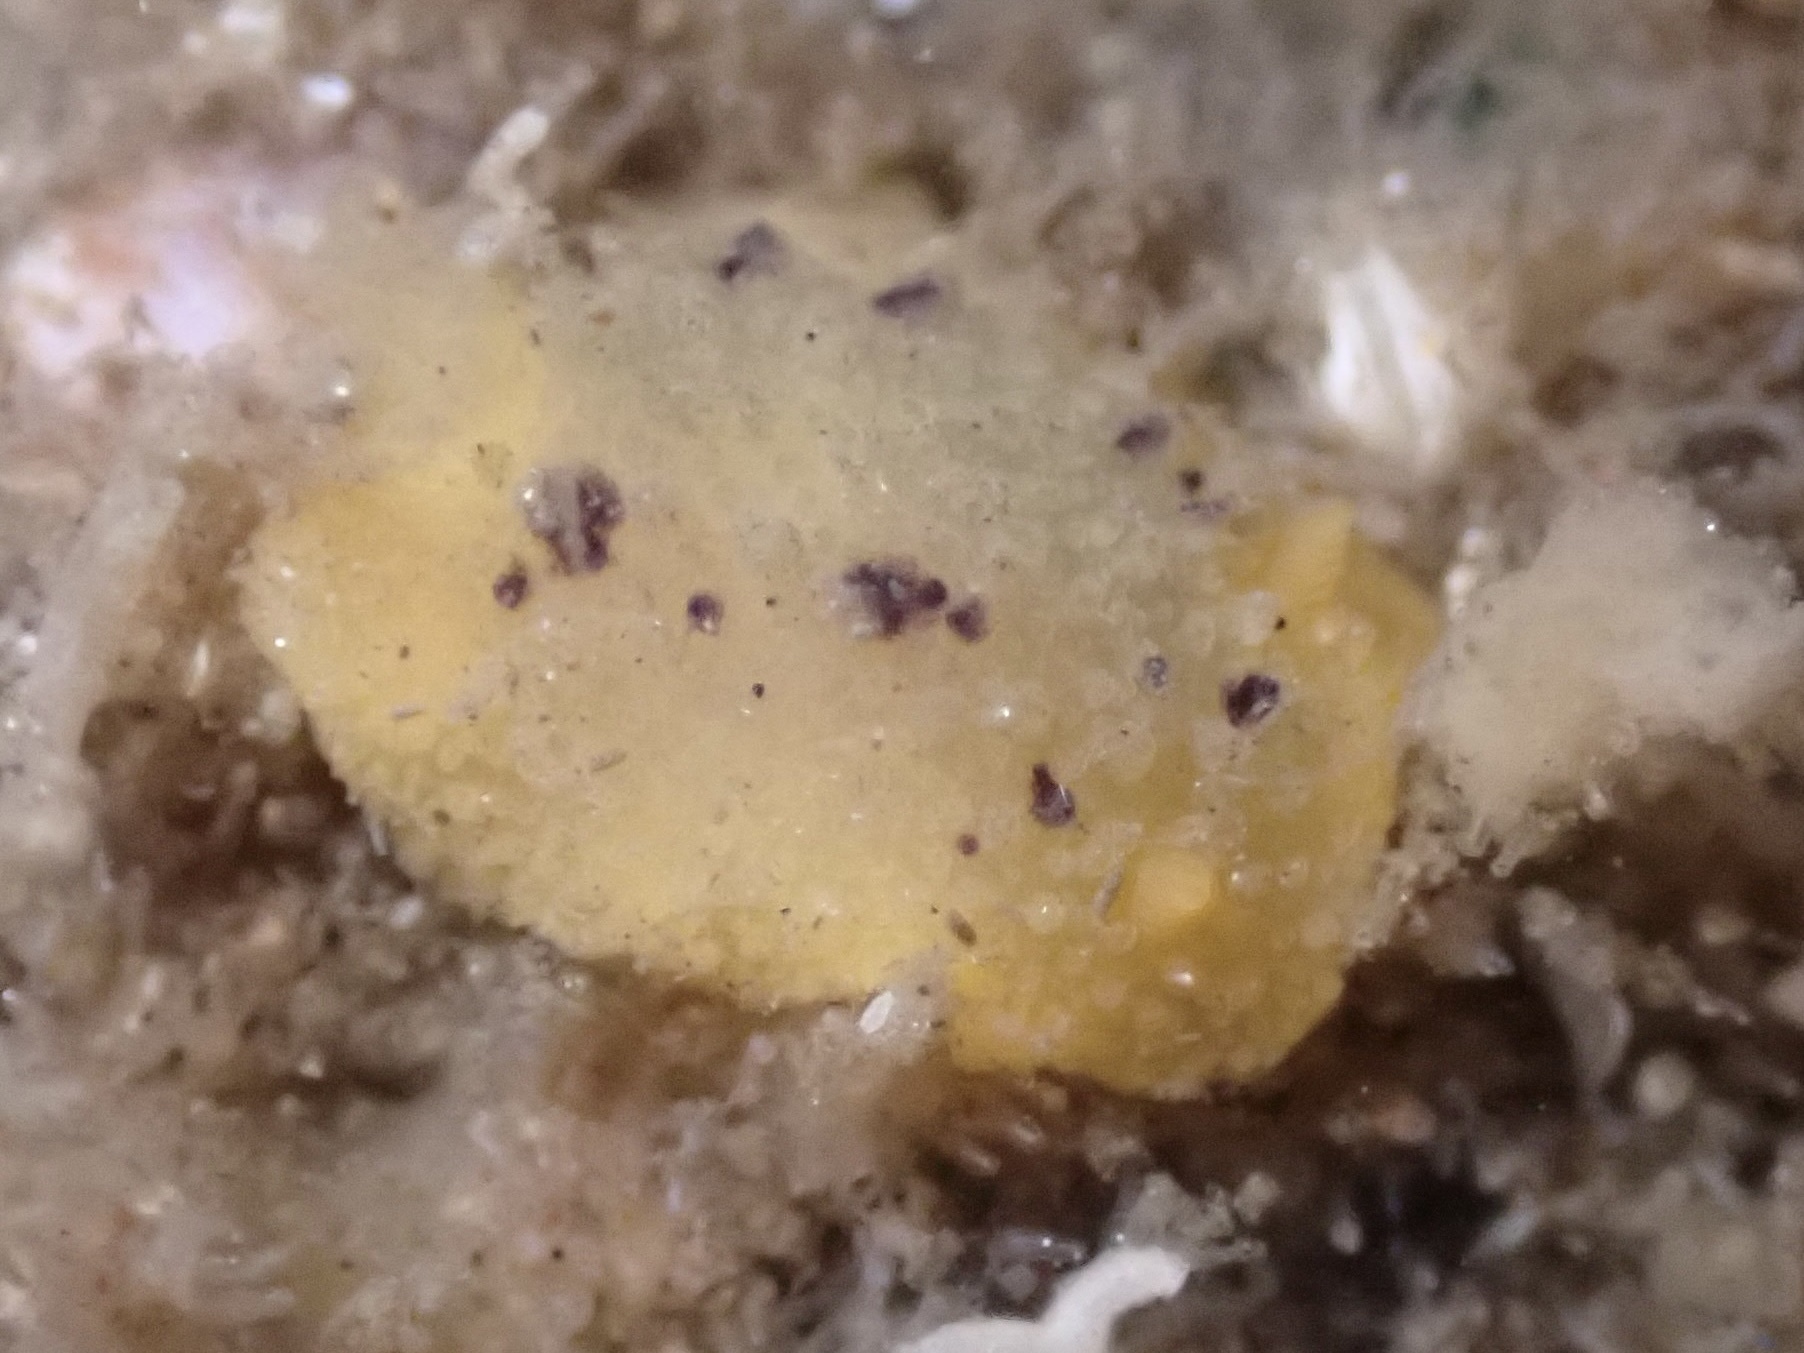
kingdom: Animalia
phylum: Mollusca
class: Gastropoda
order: Nudibranchia
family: Dorididae
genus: Doris
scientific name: Doris montereyensis
